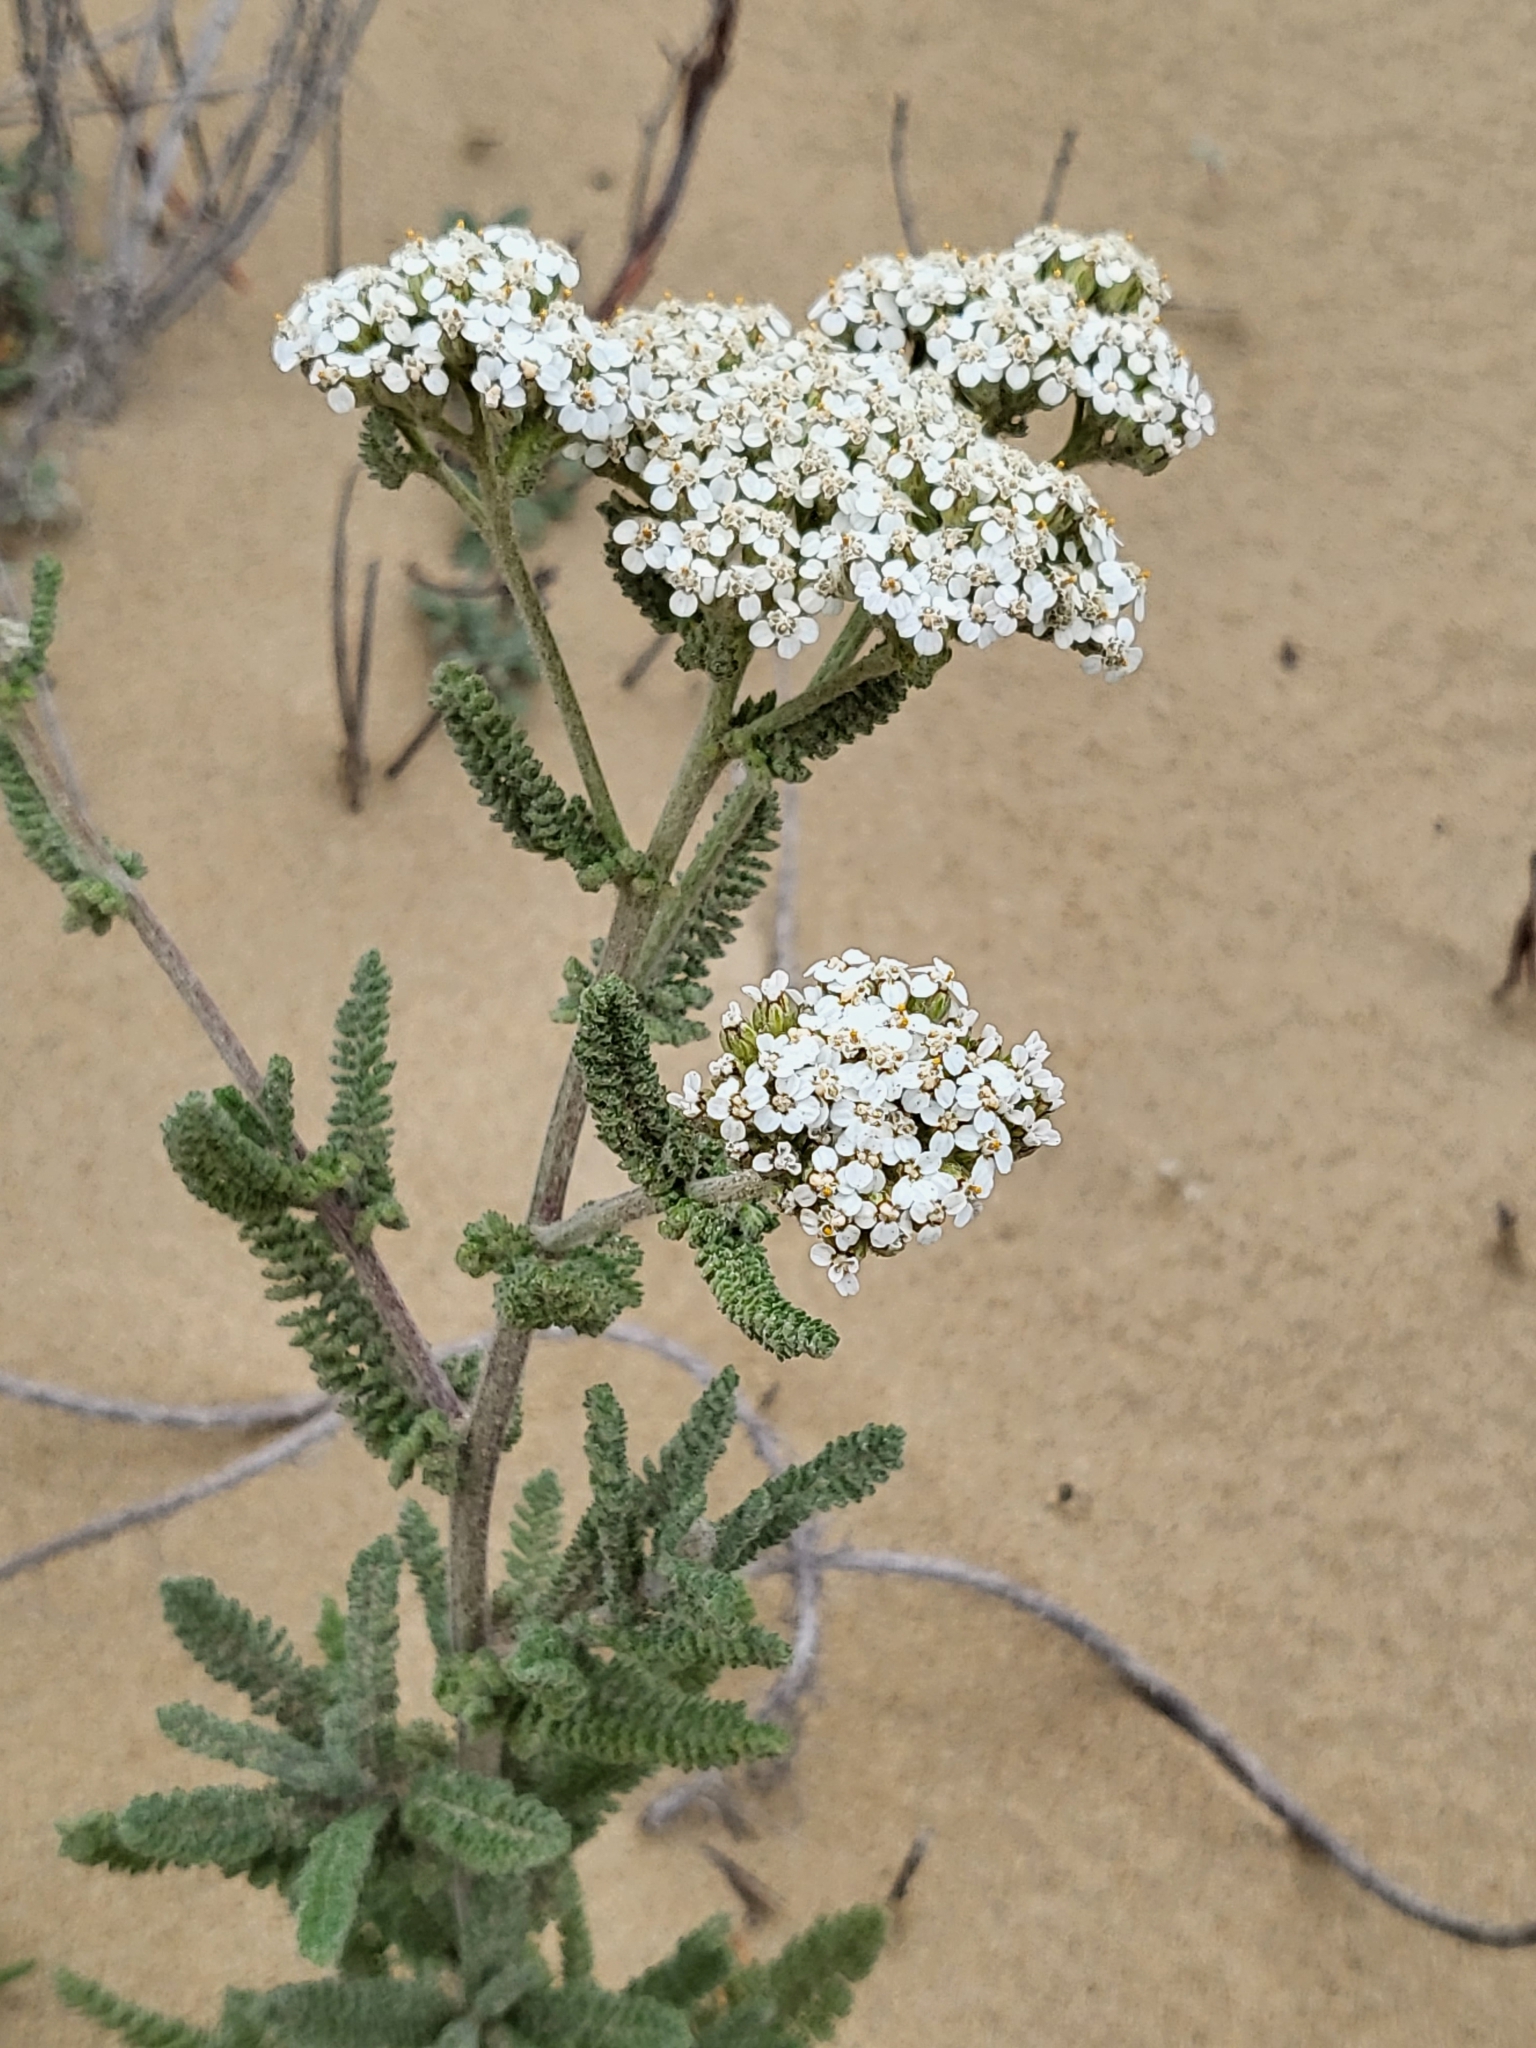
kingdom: Plantae
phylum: Tracheophyta
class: Magnoliopsida
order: Asterales
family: Asteraceae
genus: Achillea
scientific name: Achillea millefolium
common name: Yarrow
